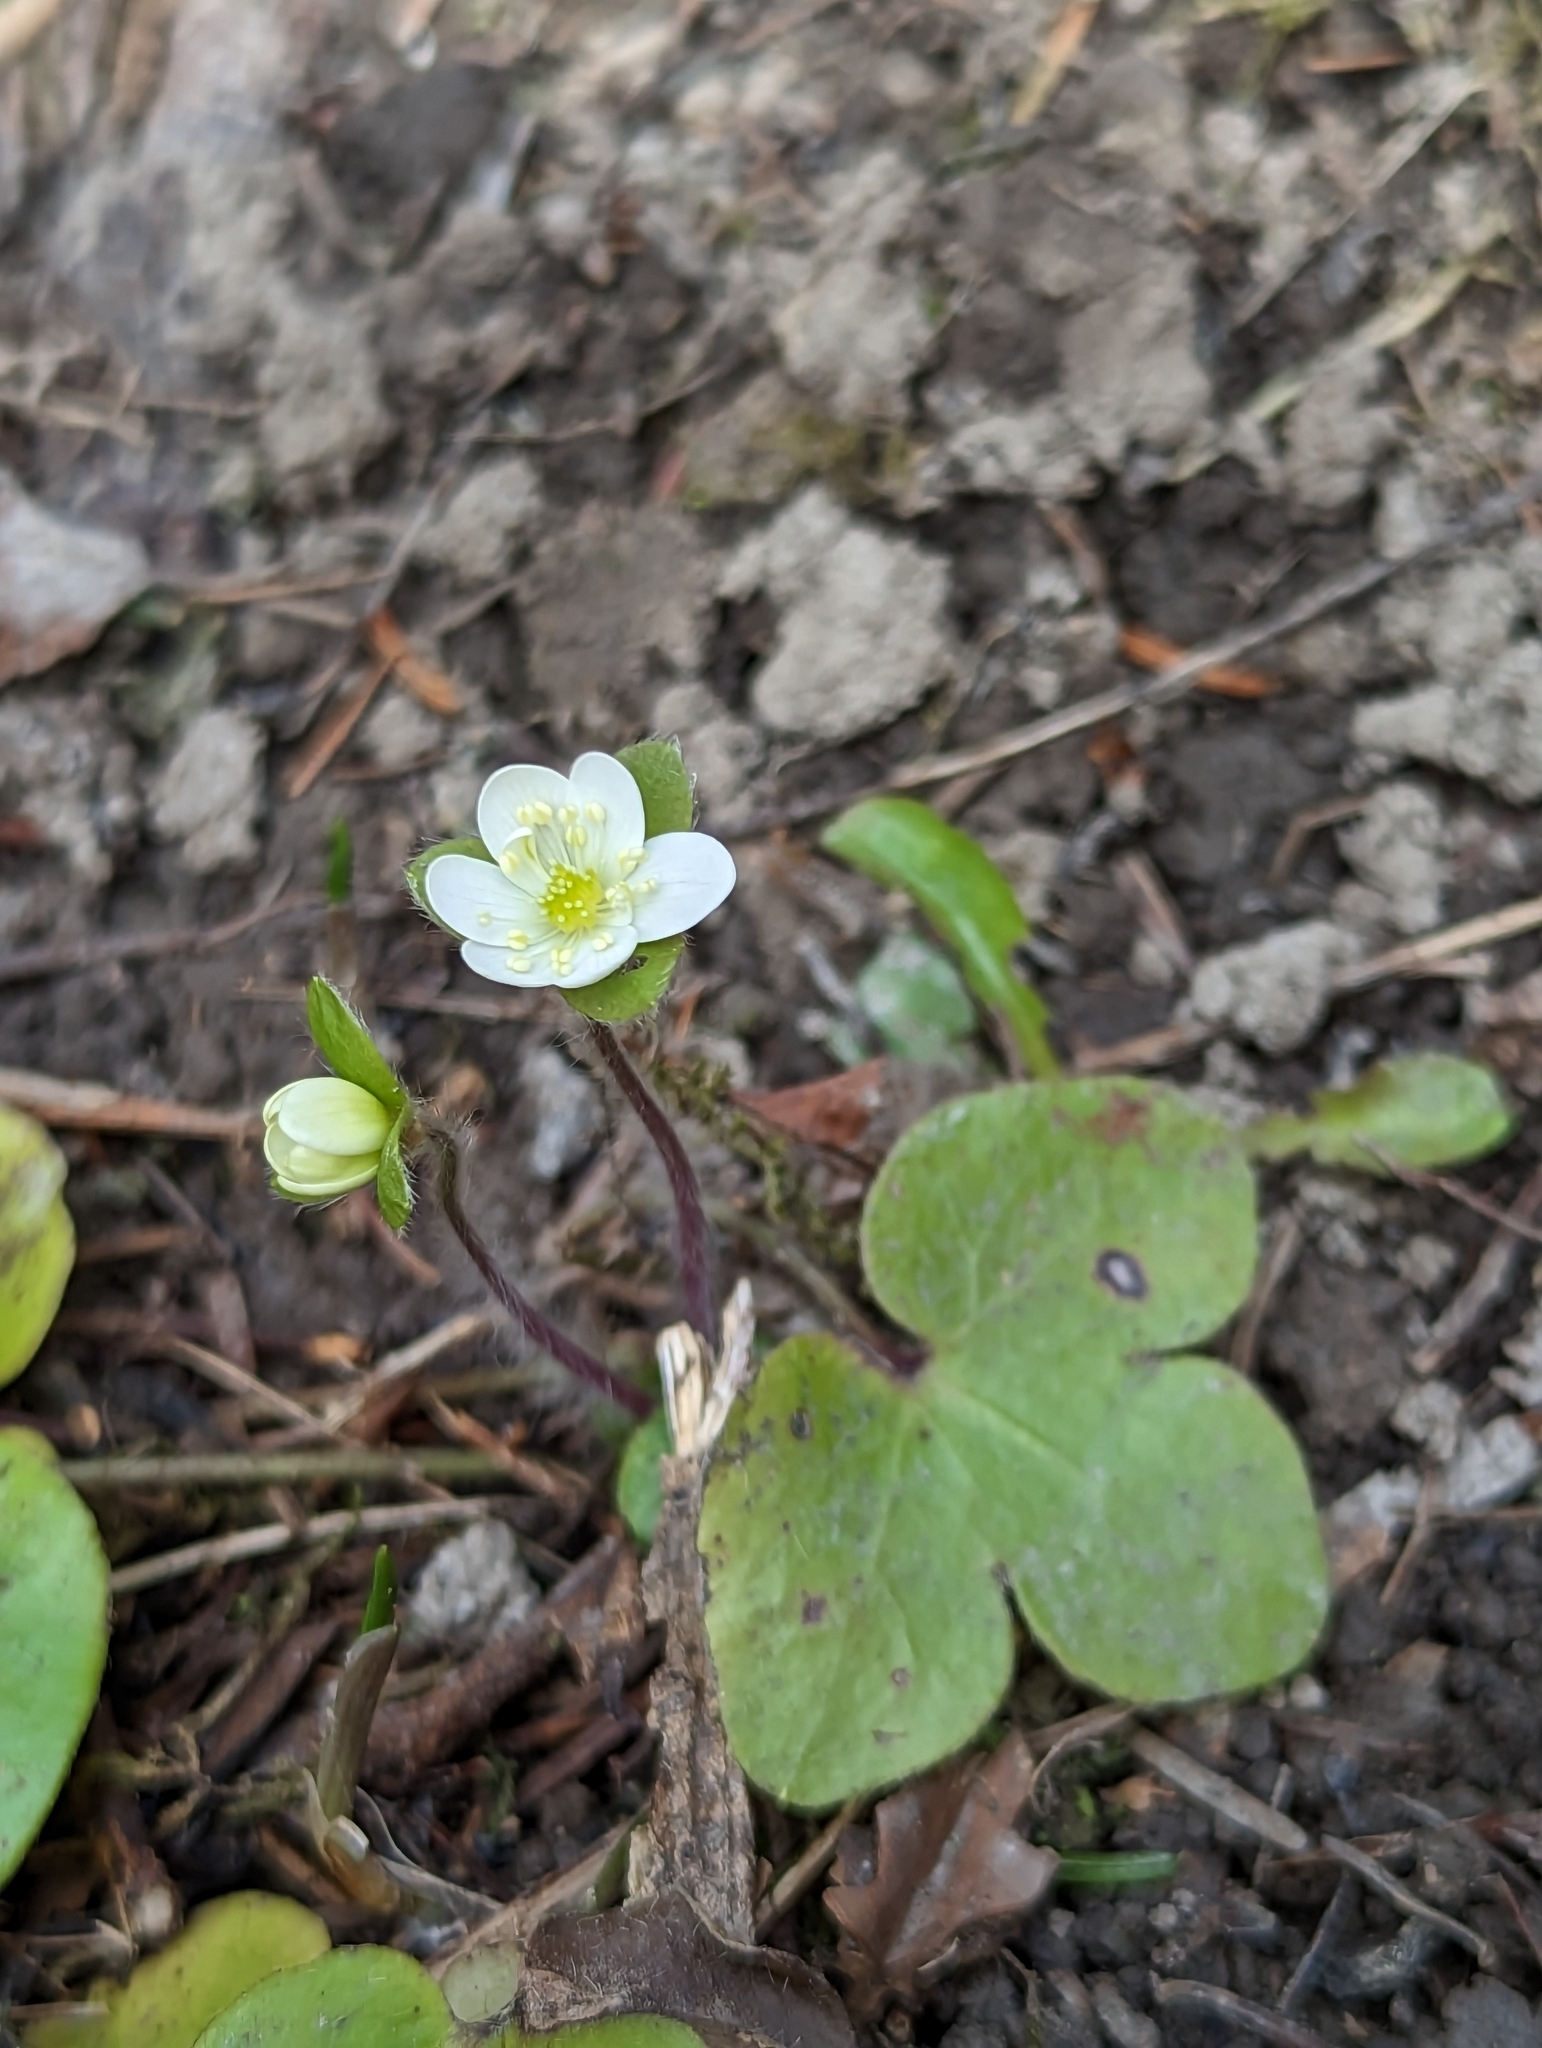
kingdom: Plantae
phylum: Tracheophyta
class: Magnoliopsida
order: Ranunculales
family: Ranunculaceae
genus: Hepatica
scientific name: Hepatica americana
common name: American hepatica
